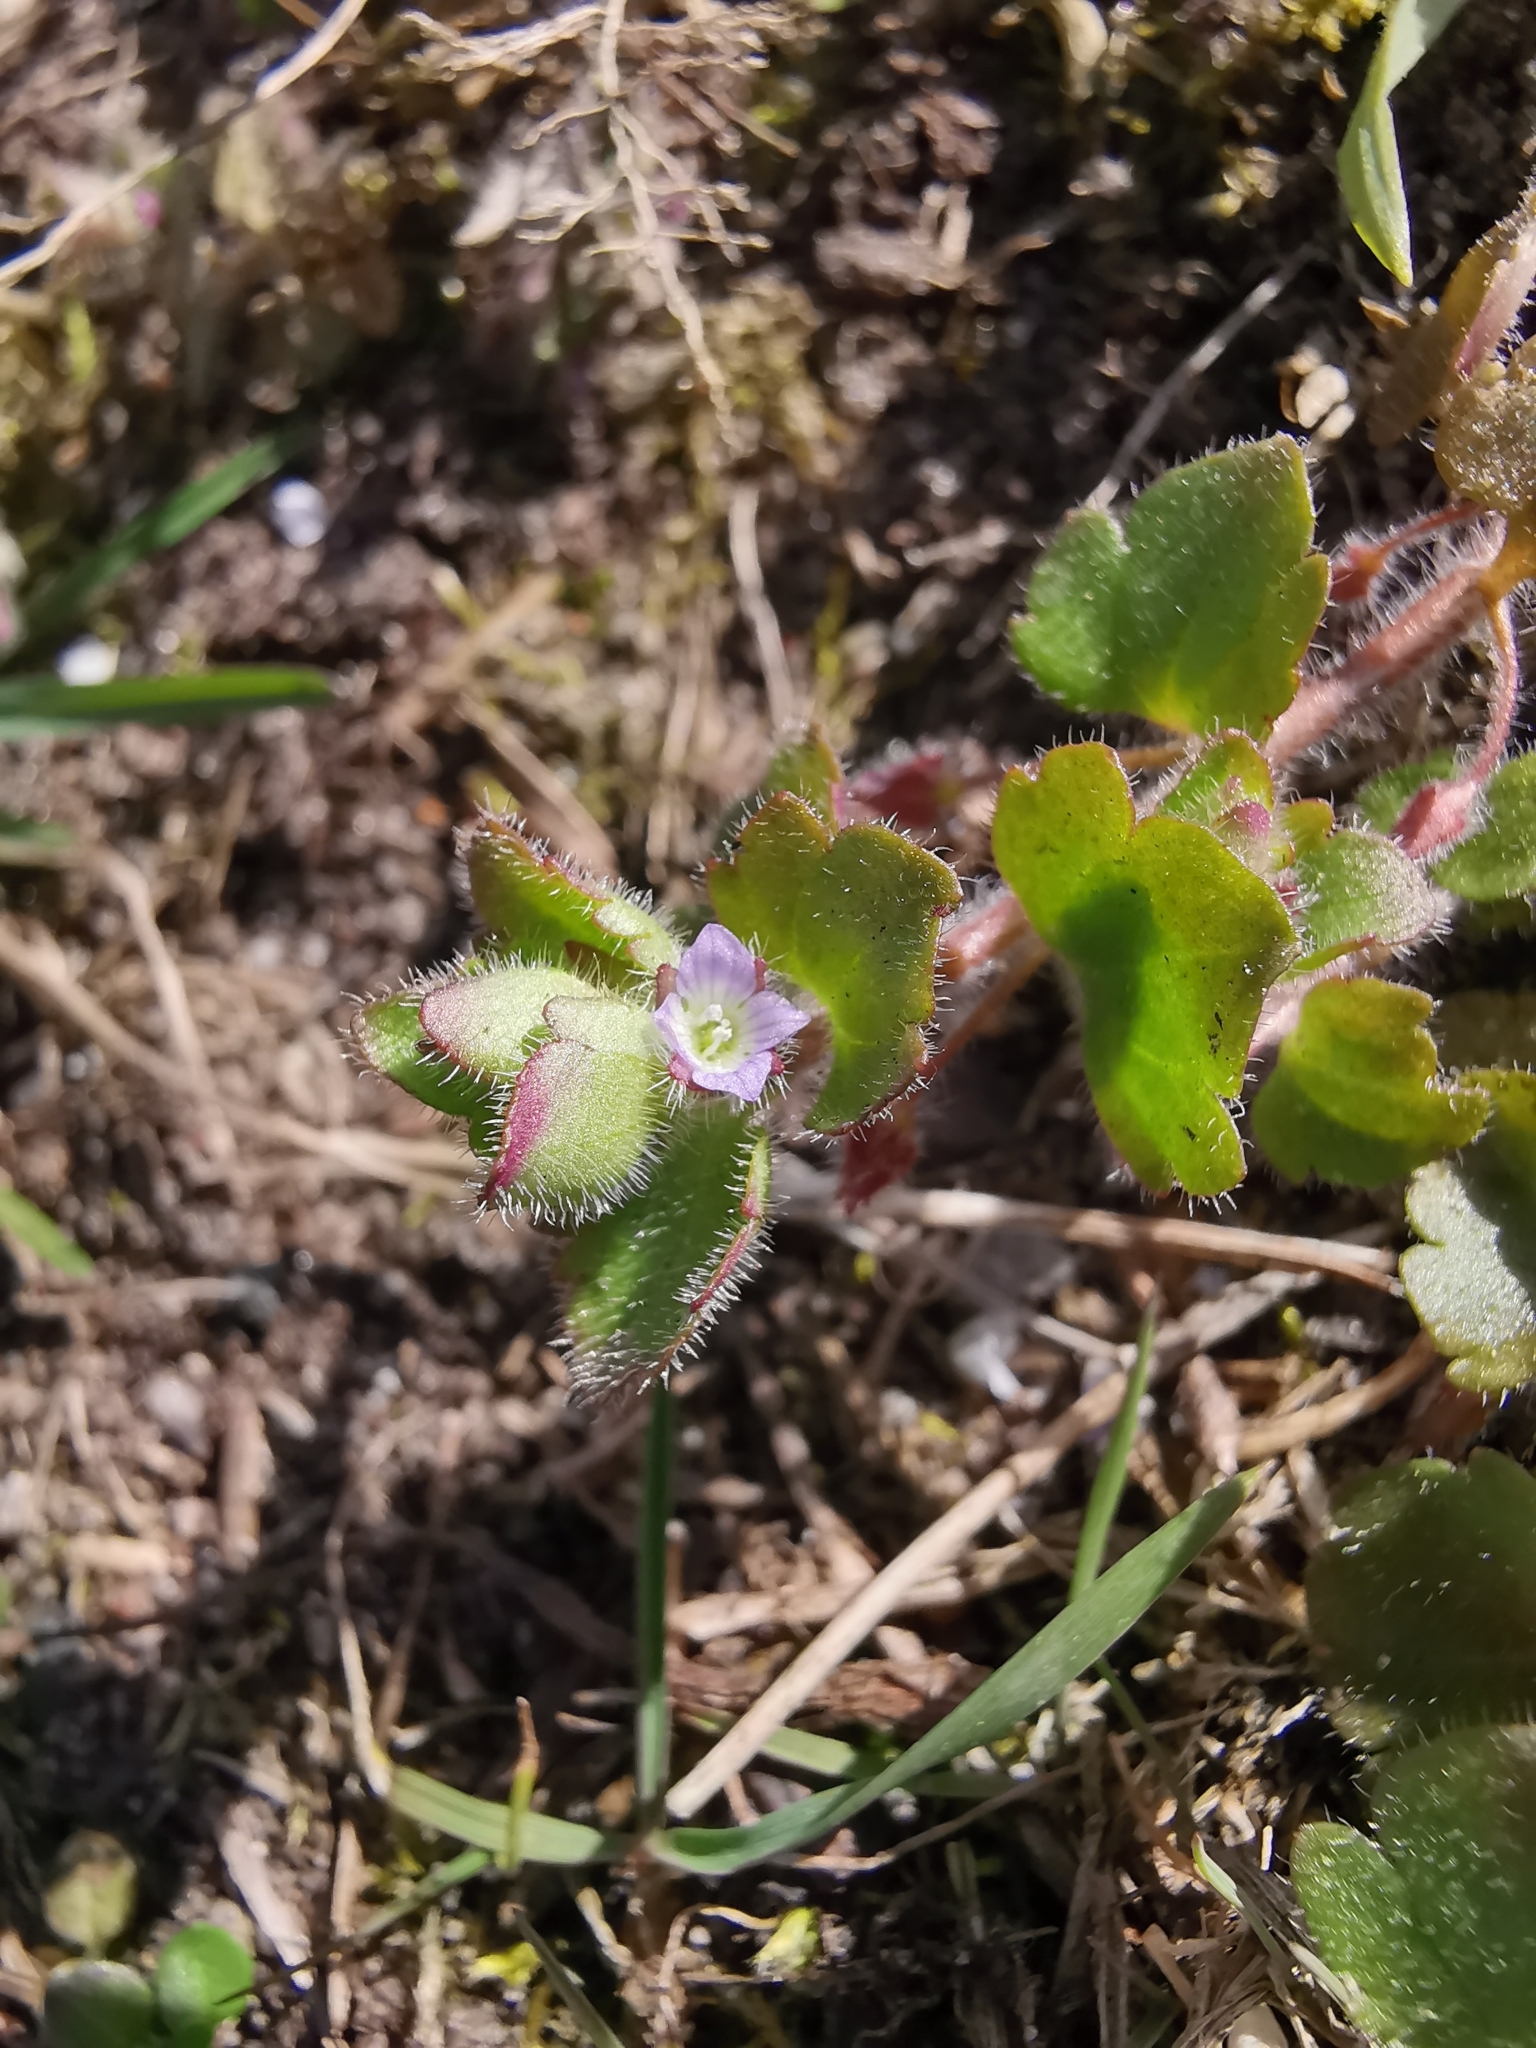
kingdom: Plantae
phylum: Tracheophyta
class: Magnoliopsida
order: Lamiales
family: Plantaginaceae
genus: Veronica
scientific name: Veronica hederifolia
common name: Ivy-leaved speedwell
